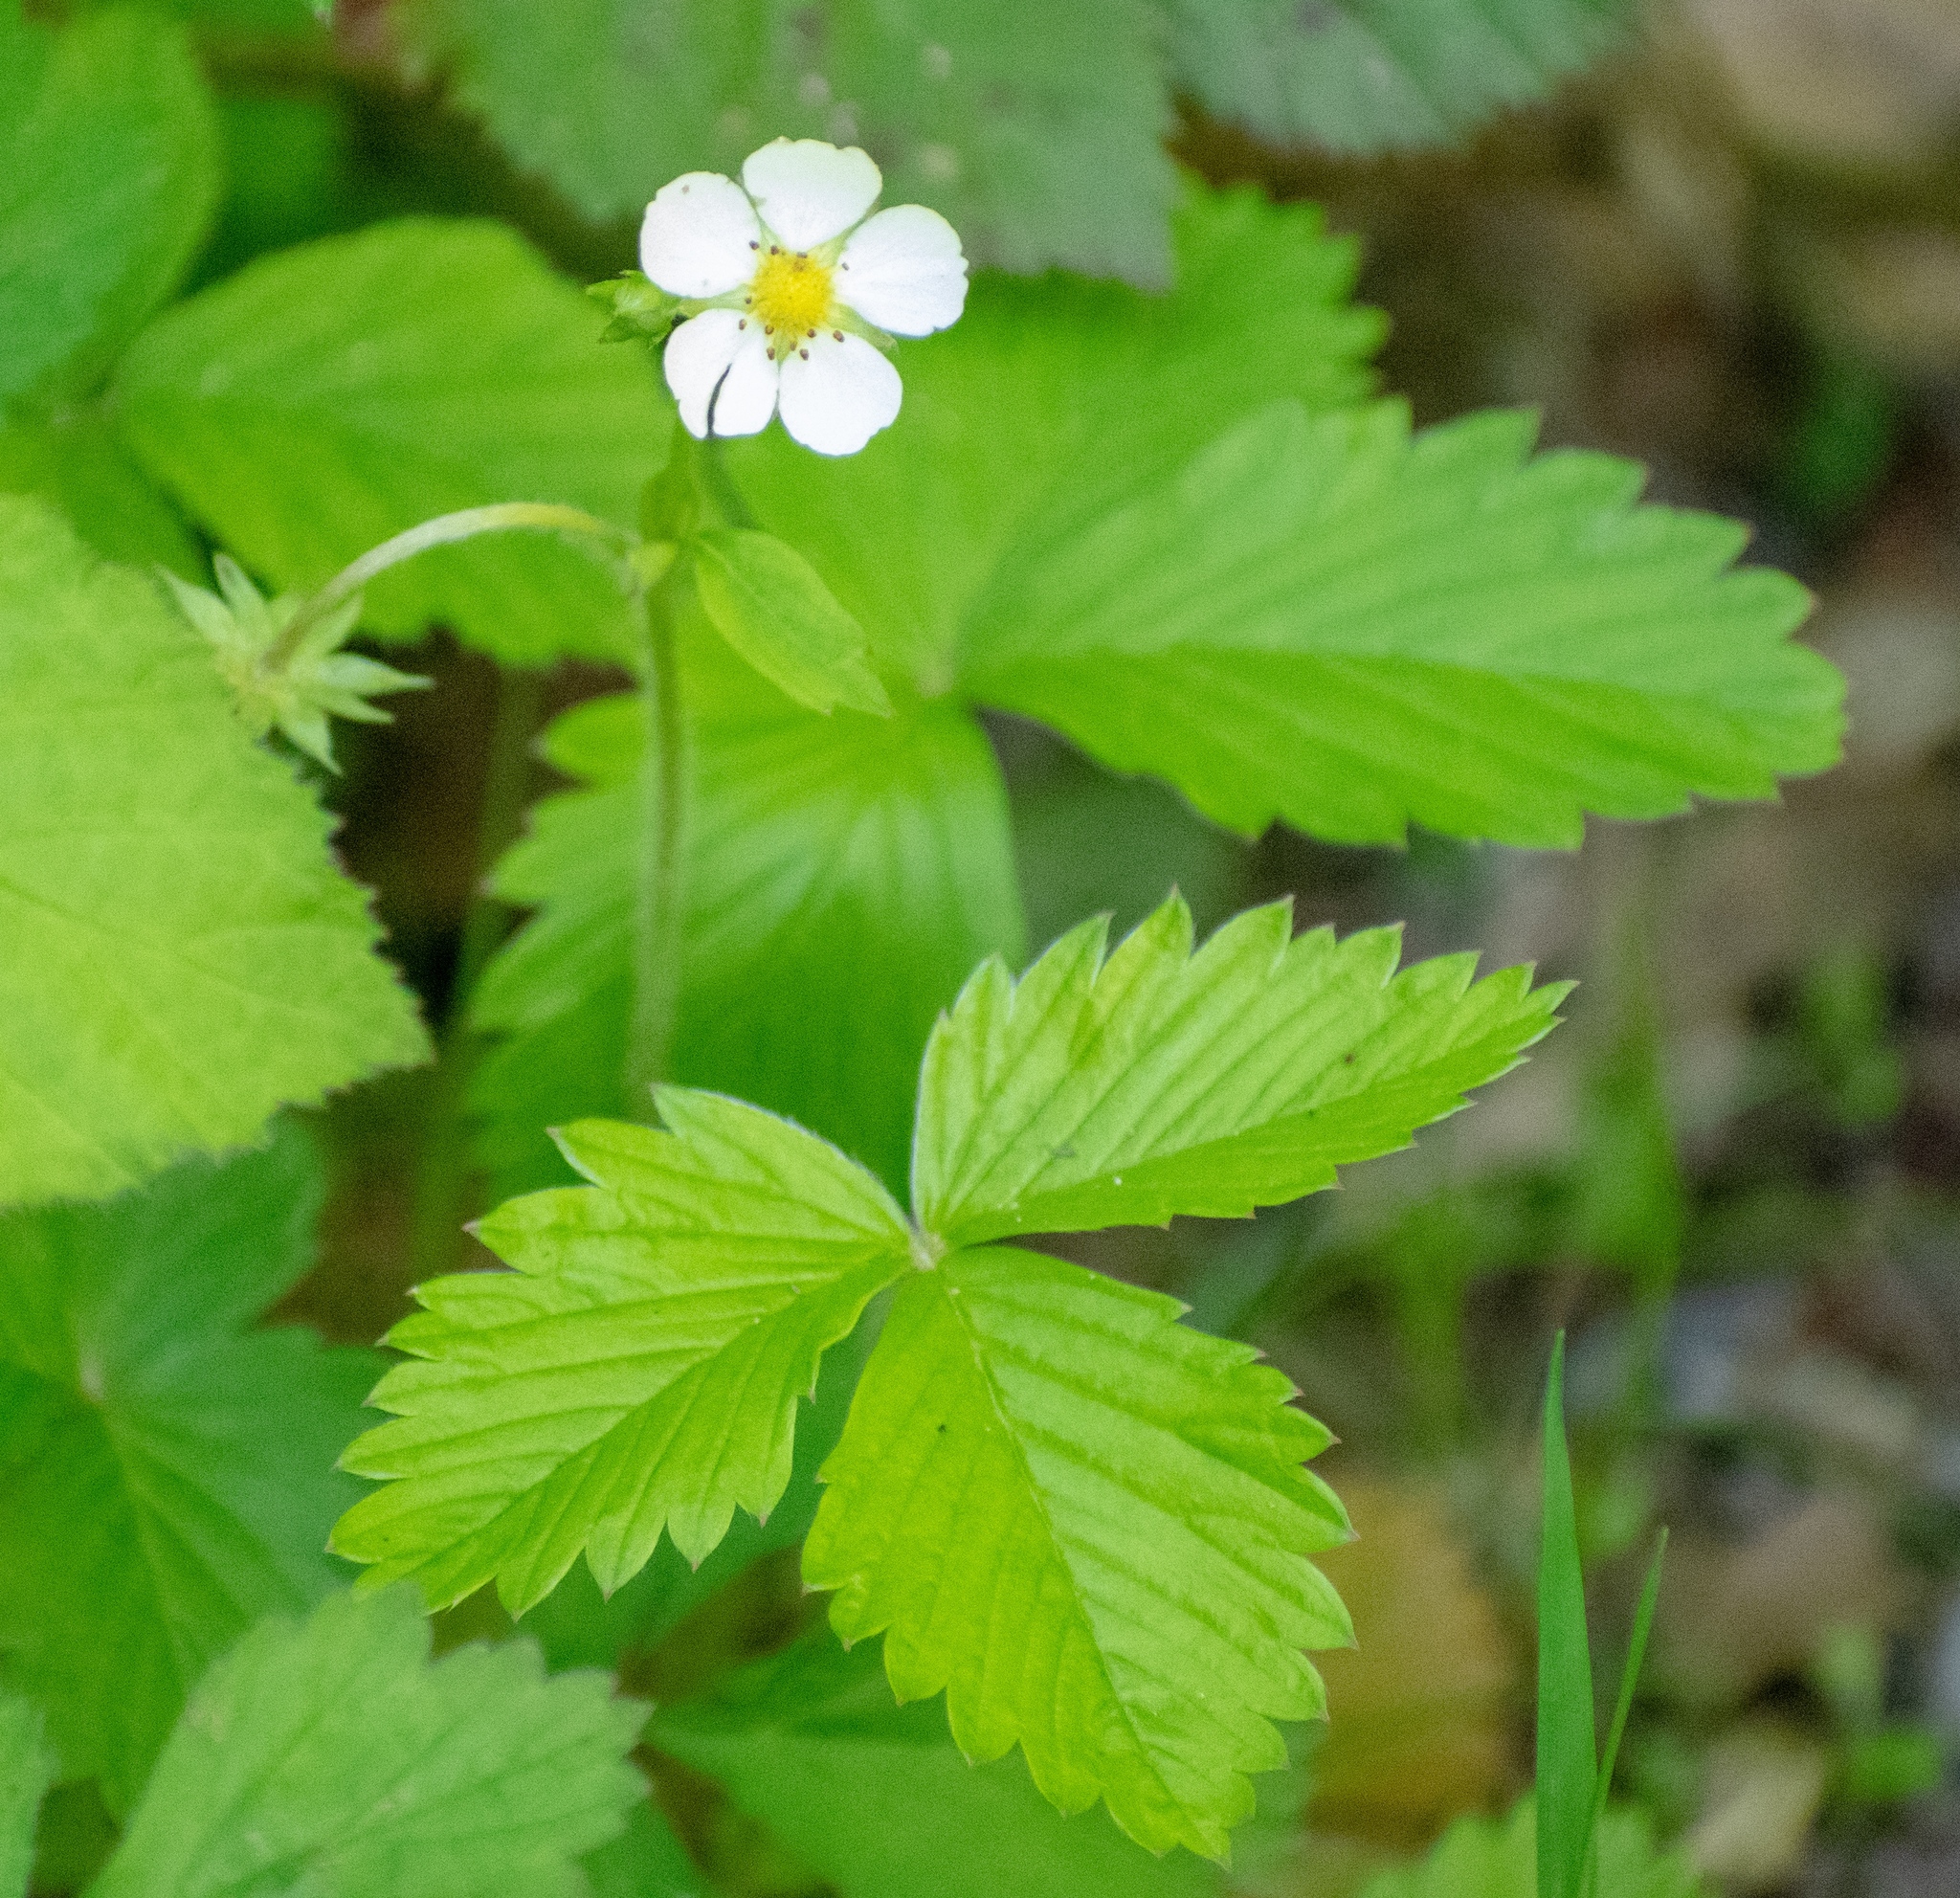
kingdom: Plantae
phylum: Tracheophyta
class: Magnoliopsida
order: Rosales
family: Rosaceae
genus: Fragaria
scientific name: Fragaria vesca
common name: Wild strawberry
